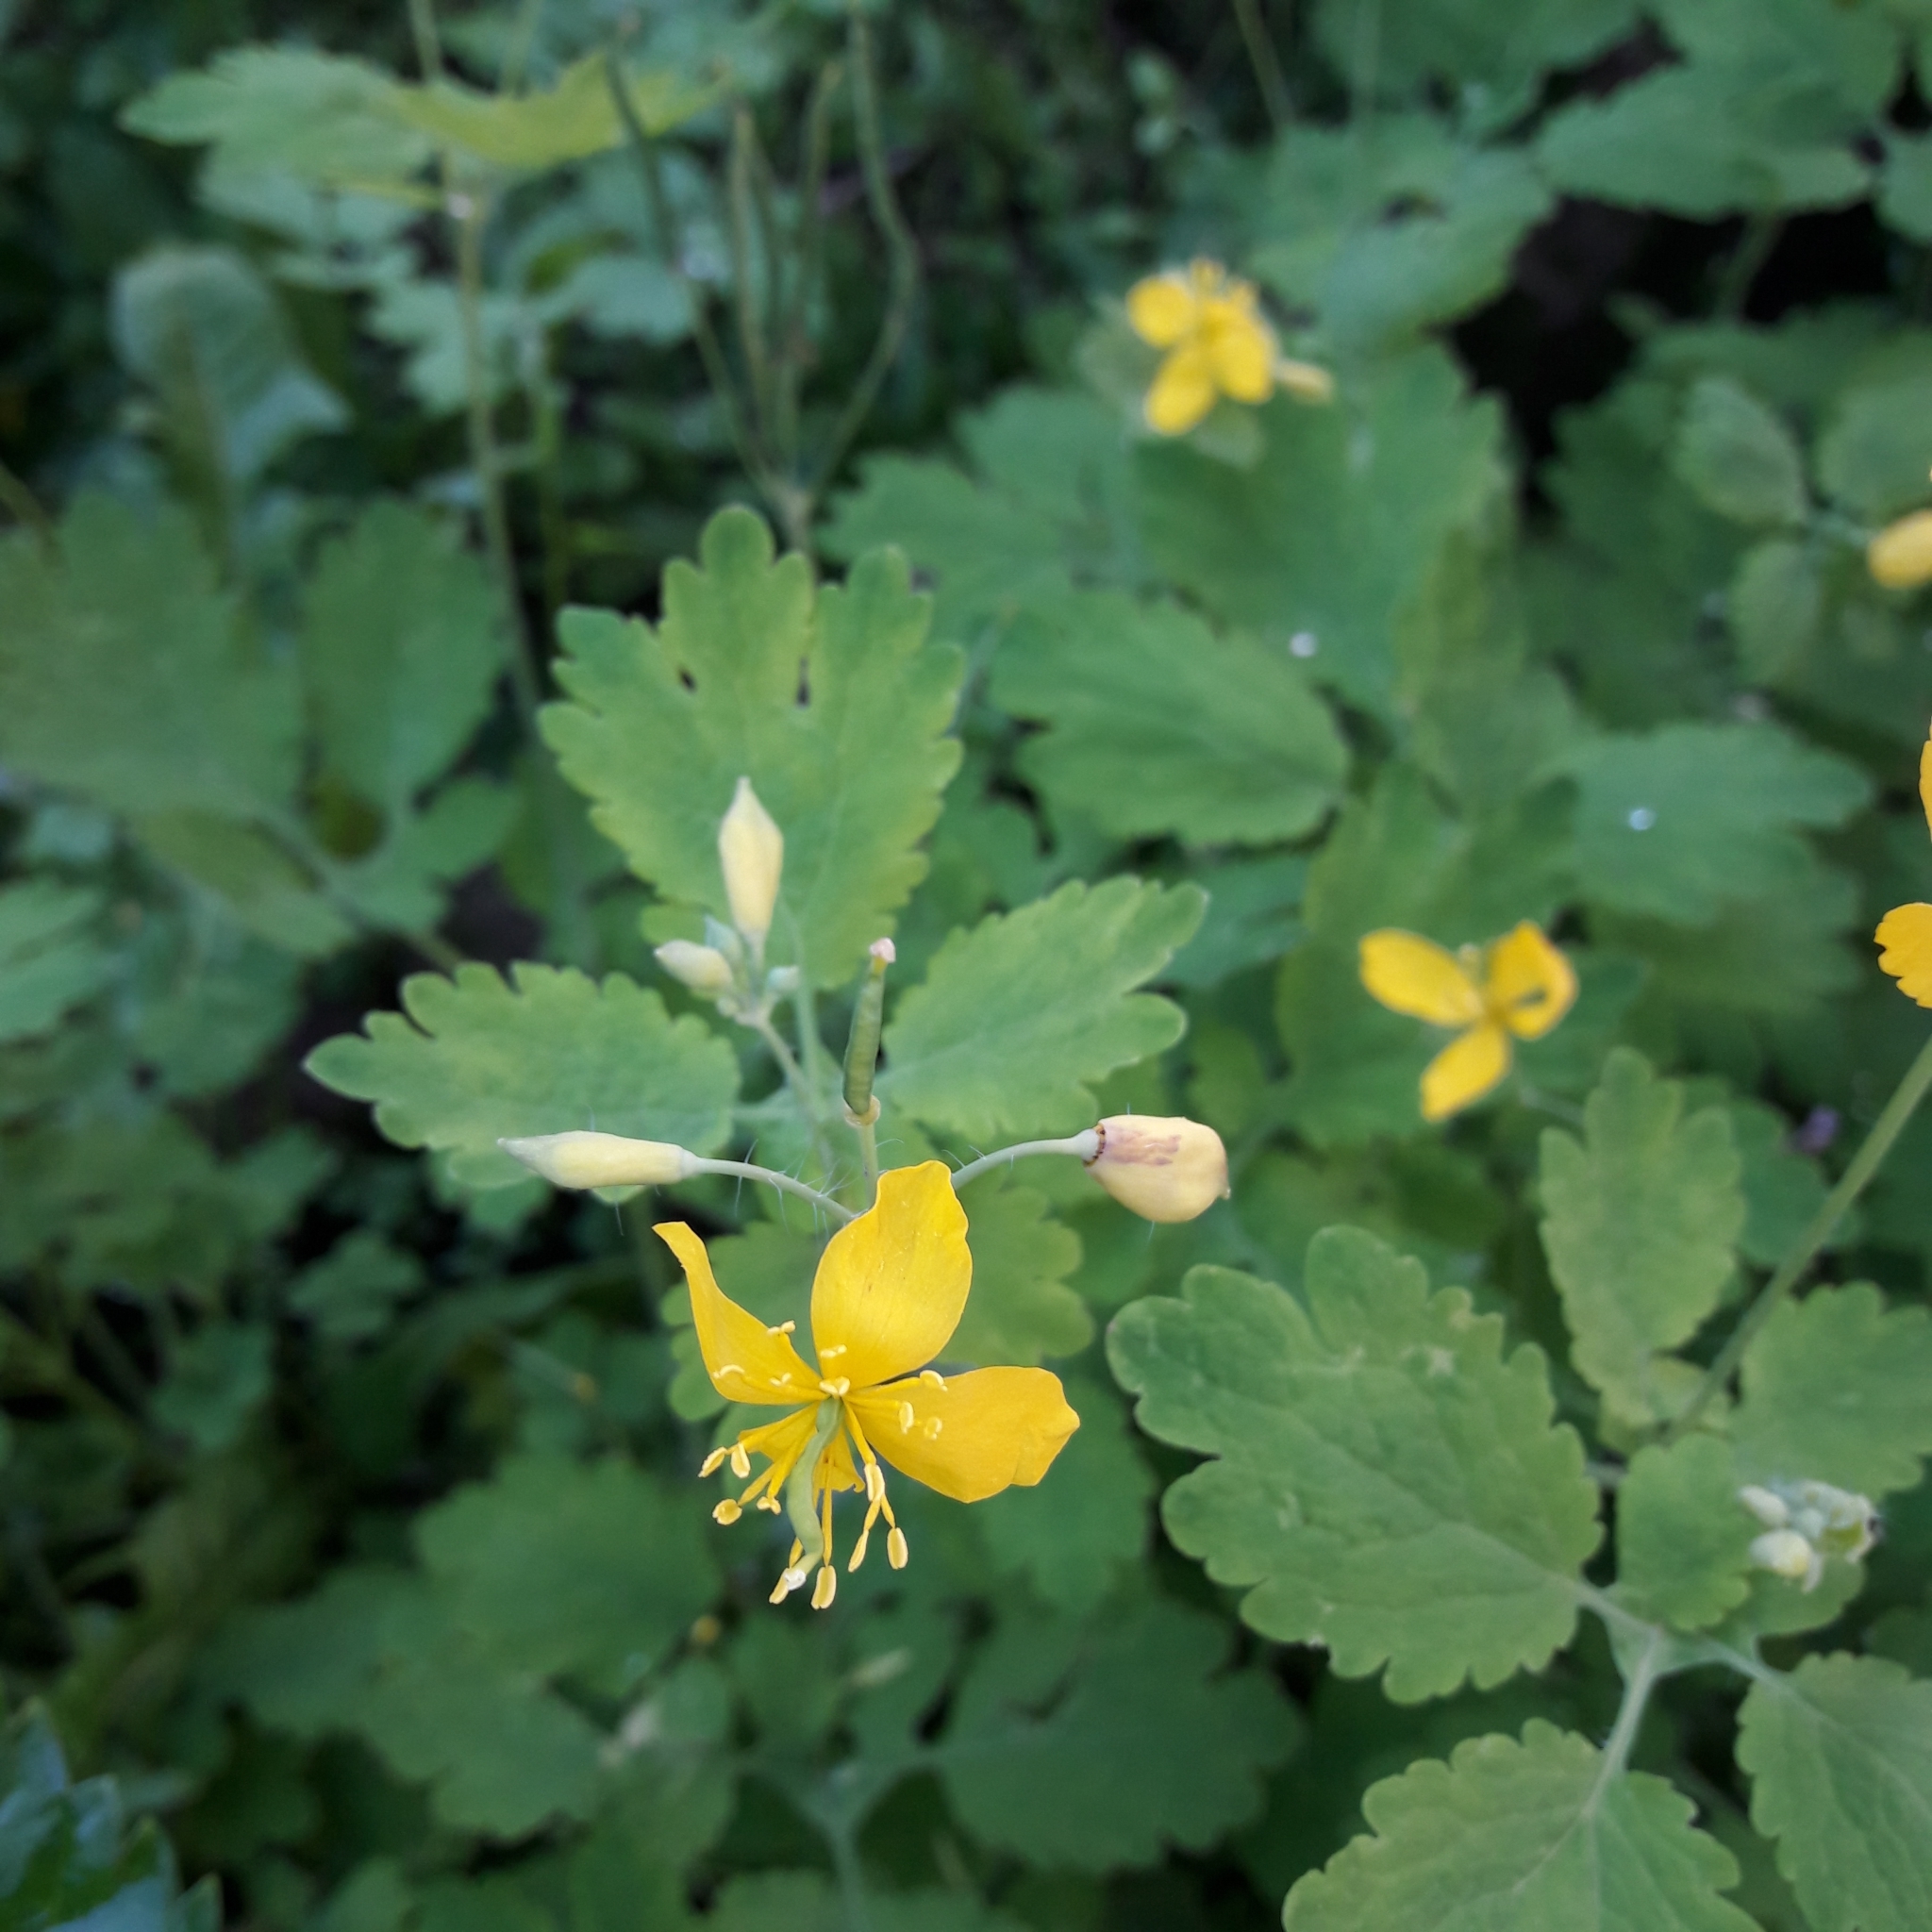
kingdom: Plantae
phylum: Tracheophyta
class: Magnoliopsida
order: Ranunculales
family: Papaveraceae
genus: Chelidonium
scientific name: Chelidonium majus
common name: Greater celandine
